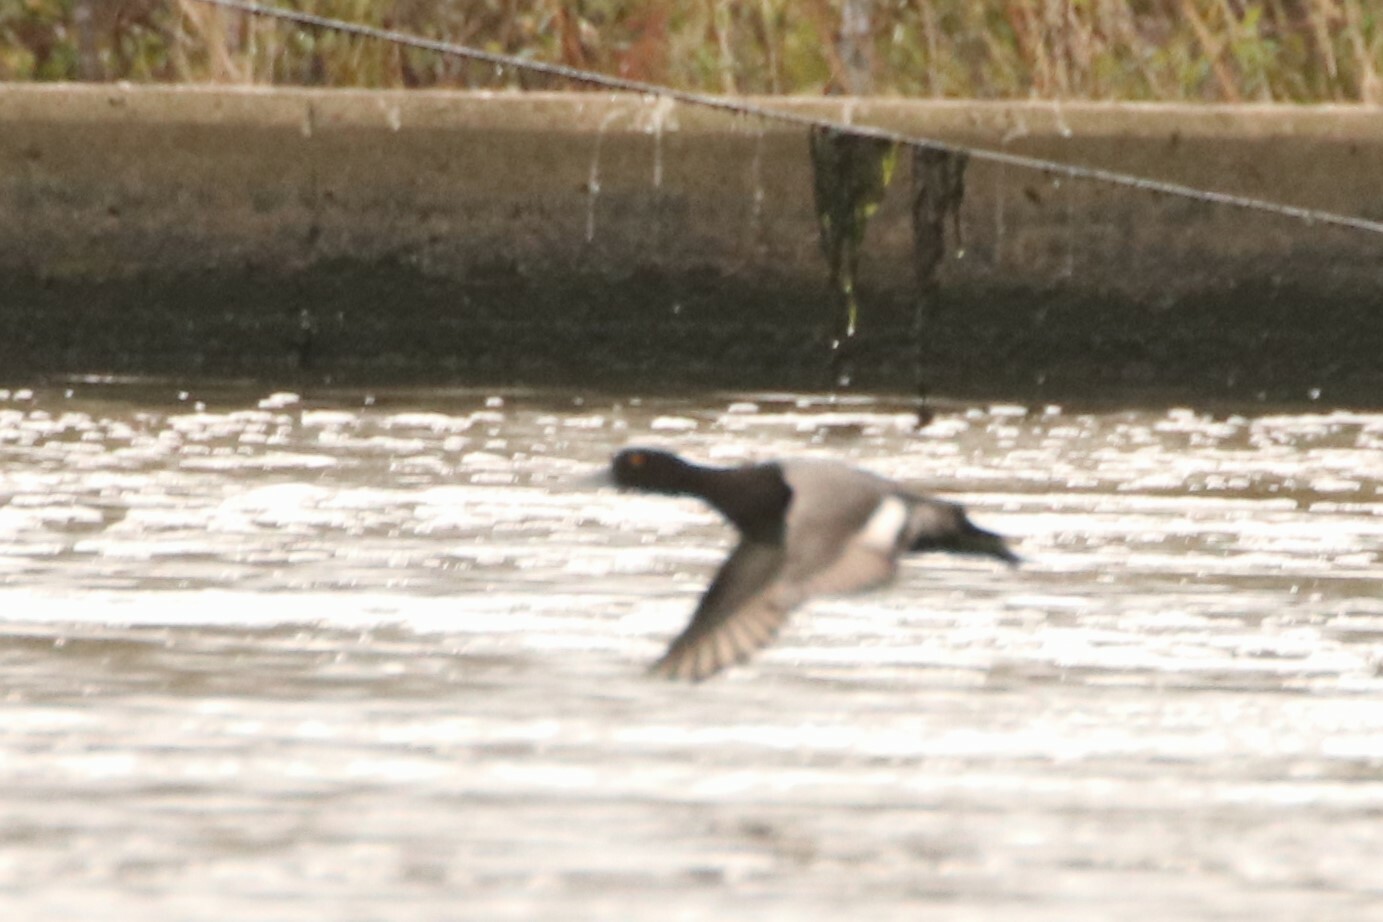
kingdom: Animalia
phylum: Chordata
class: Aves
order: Anseriformes
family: Anatidae
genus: Aythya
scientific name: Aythya affinis
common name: Lesser scaup
